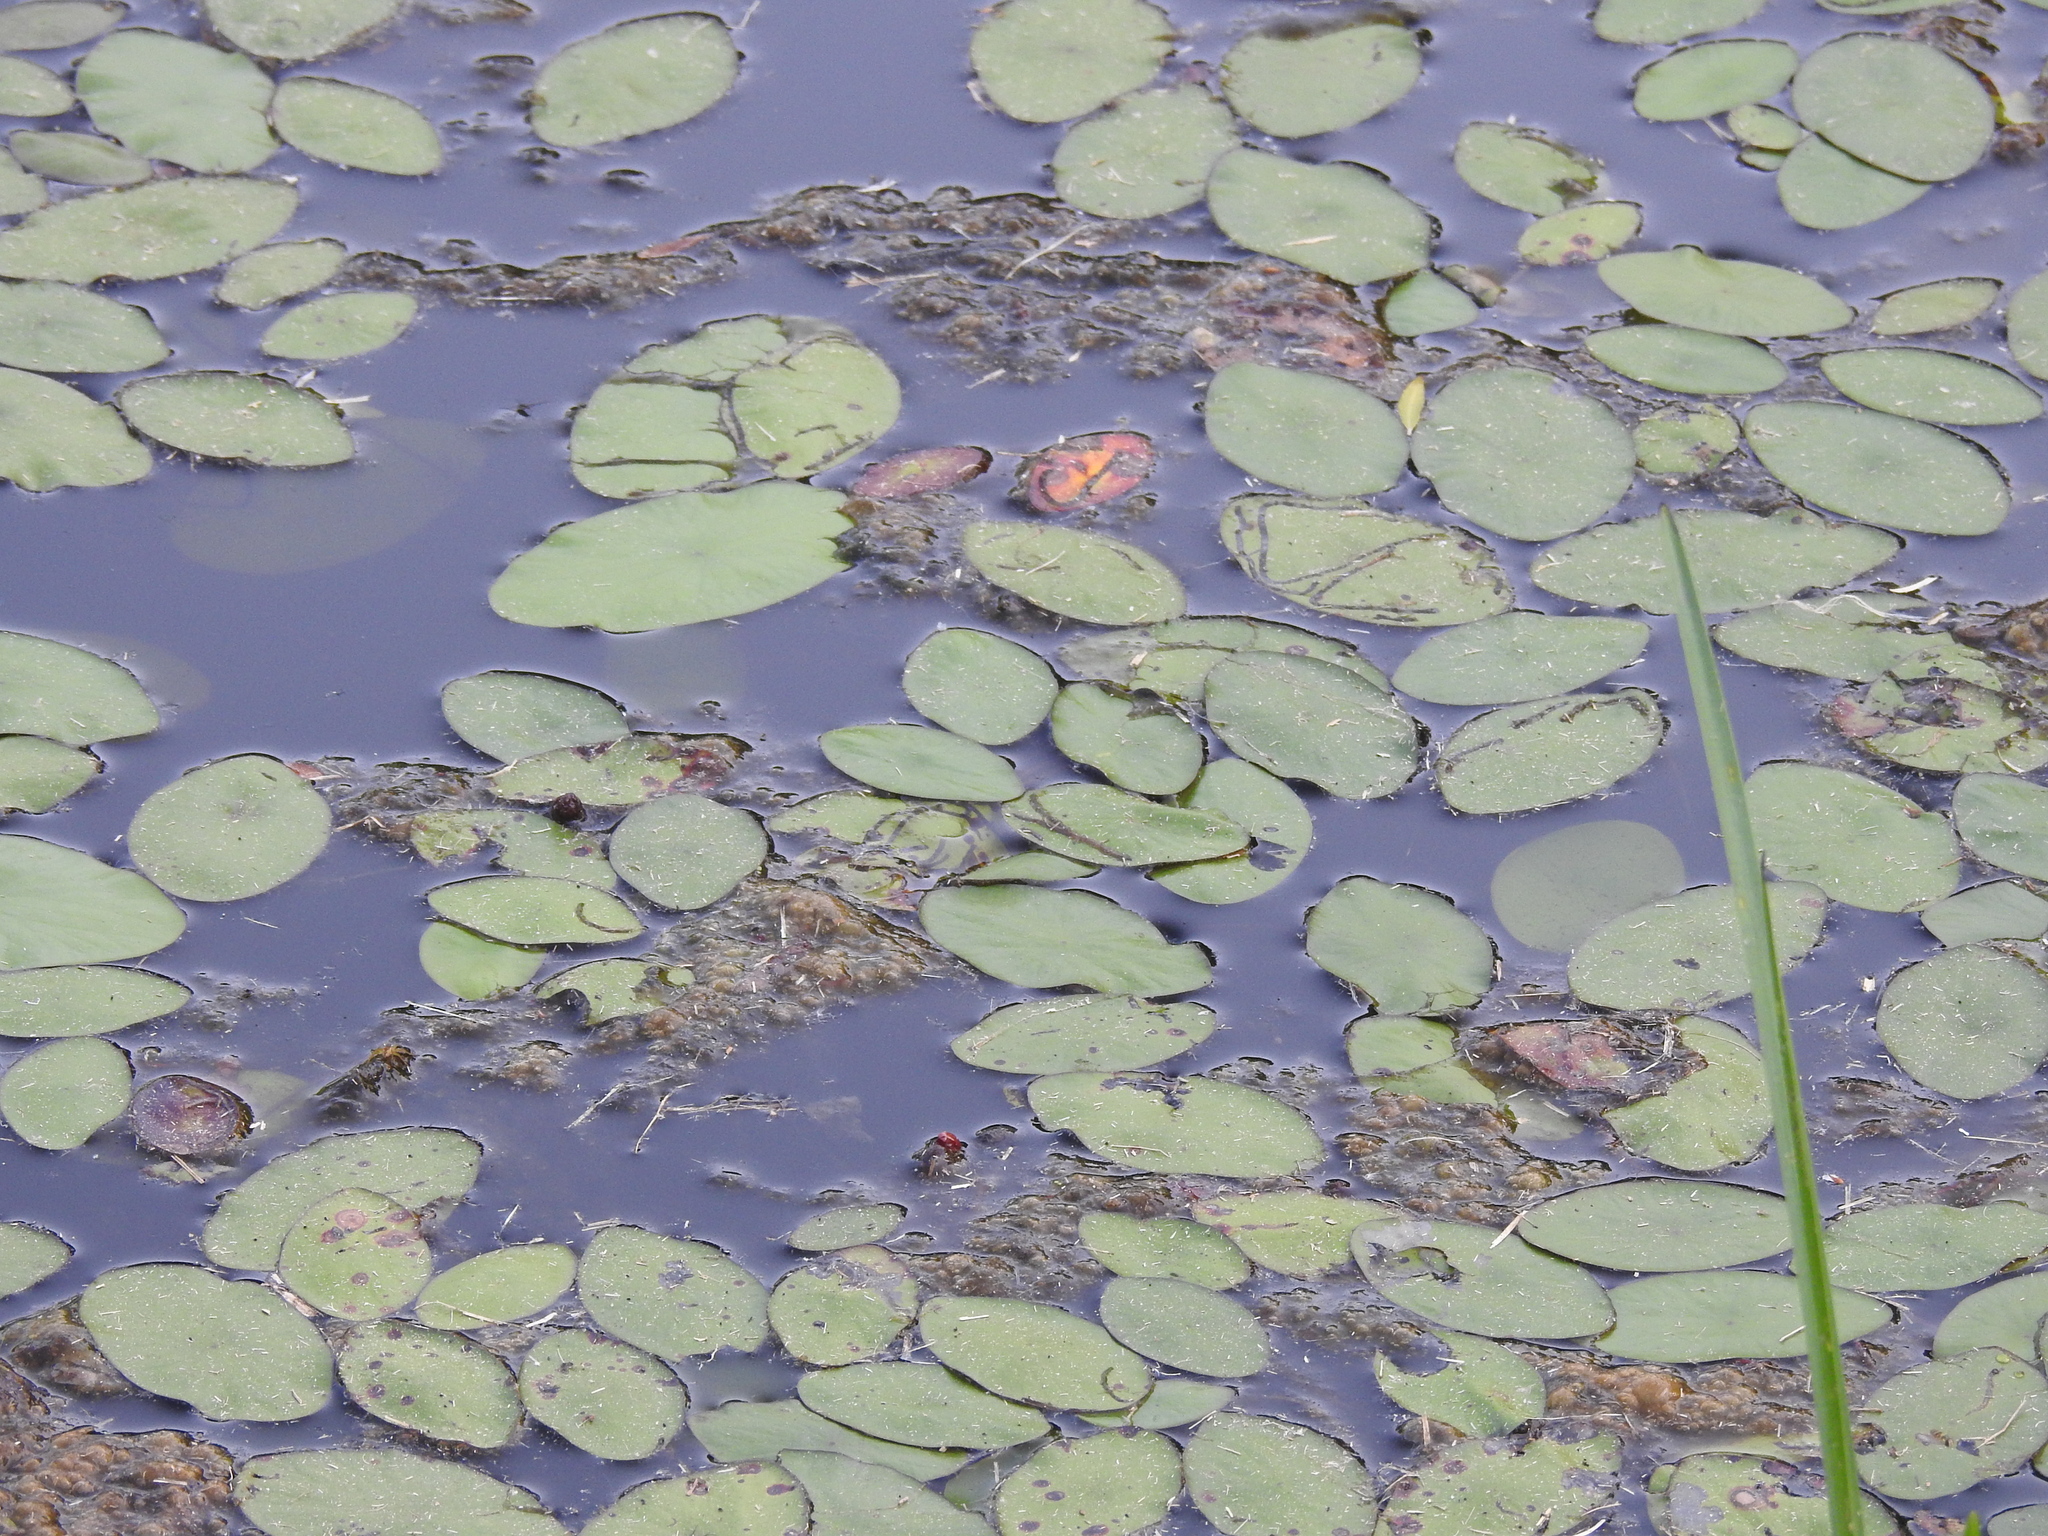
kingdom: Plantae
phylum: Tracheophyta
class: Magnoliopsida
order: Nymphaeales
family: Cabombaceae
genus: Brasenia
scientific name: Brasenia schreberi
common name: Water-shield
